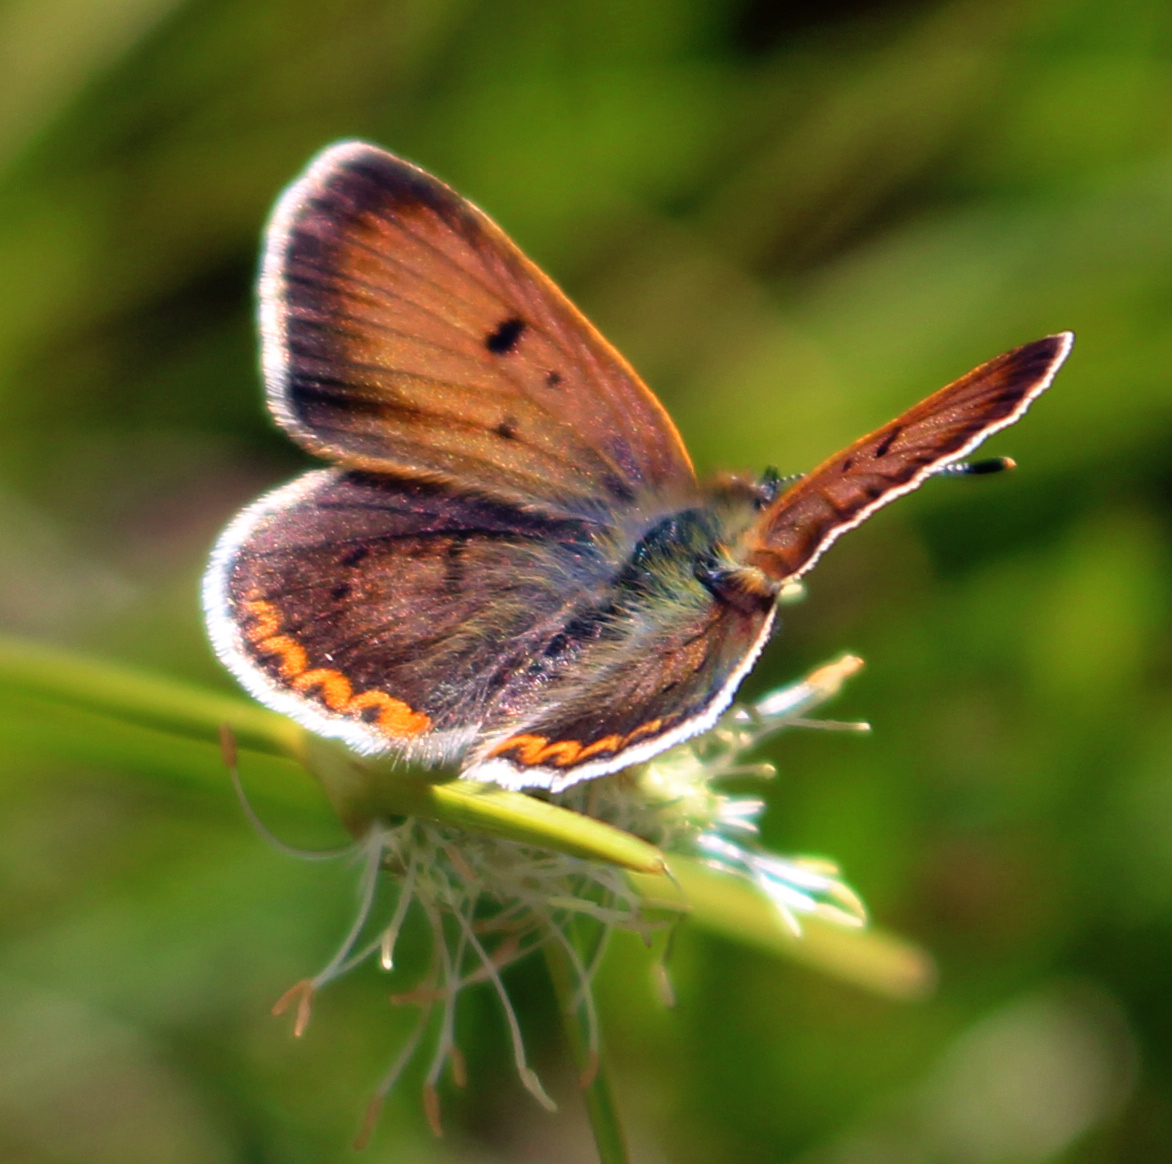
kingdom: Animalia
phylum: Arthropoda
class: Insecta
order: Lepidoptera
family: Lycaenidae
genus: Tharsalea
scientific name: Tharsalea epixanthe
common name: Bog copper
